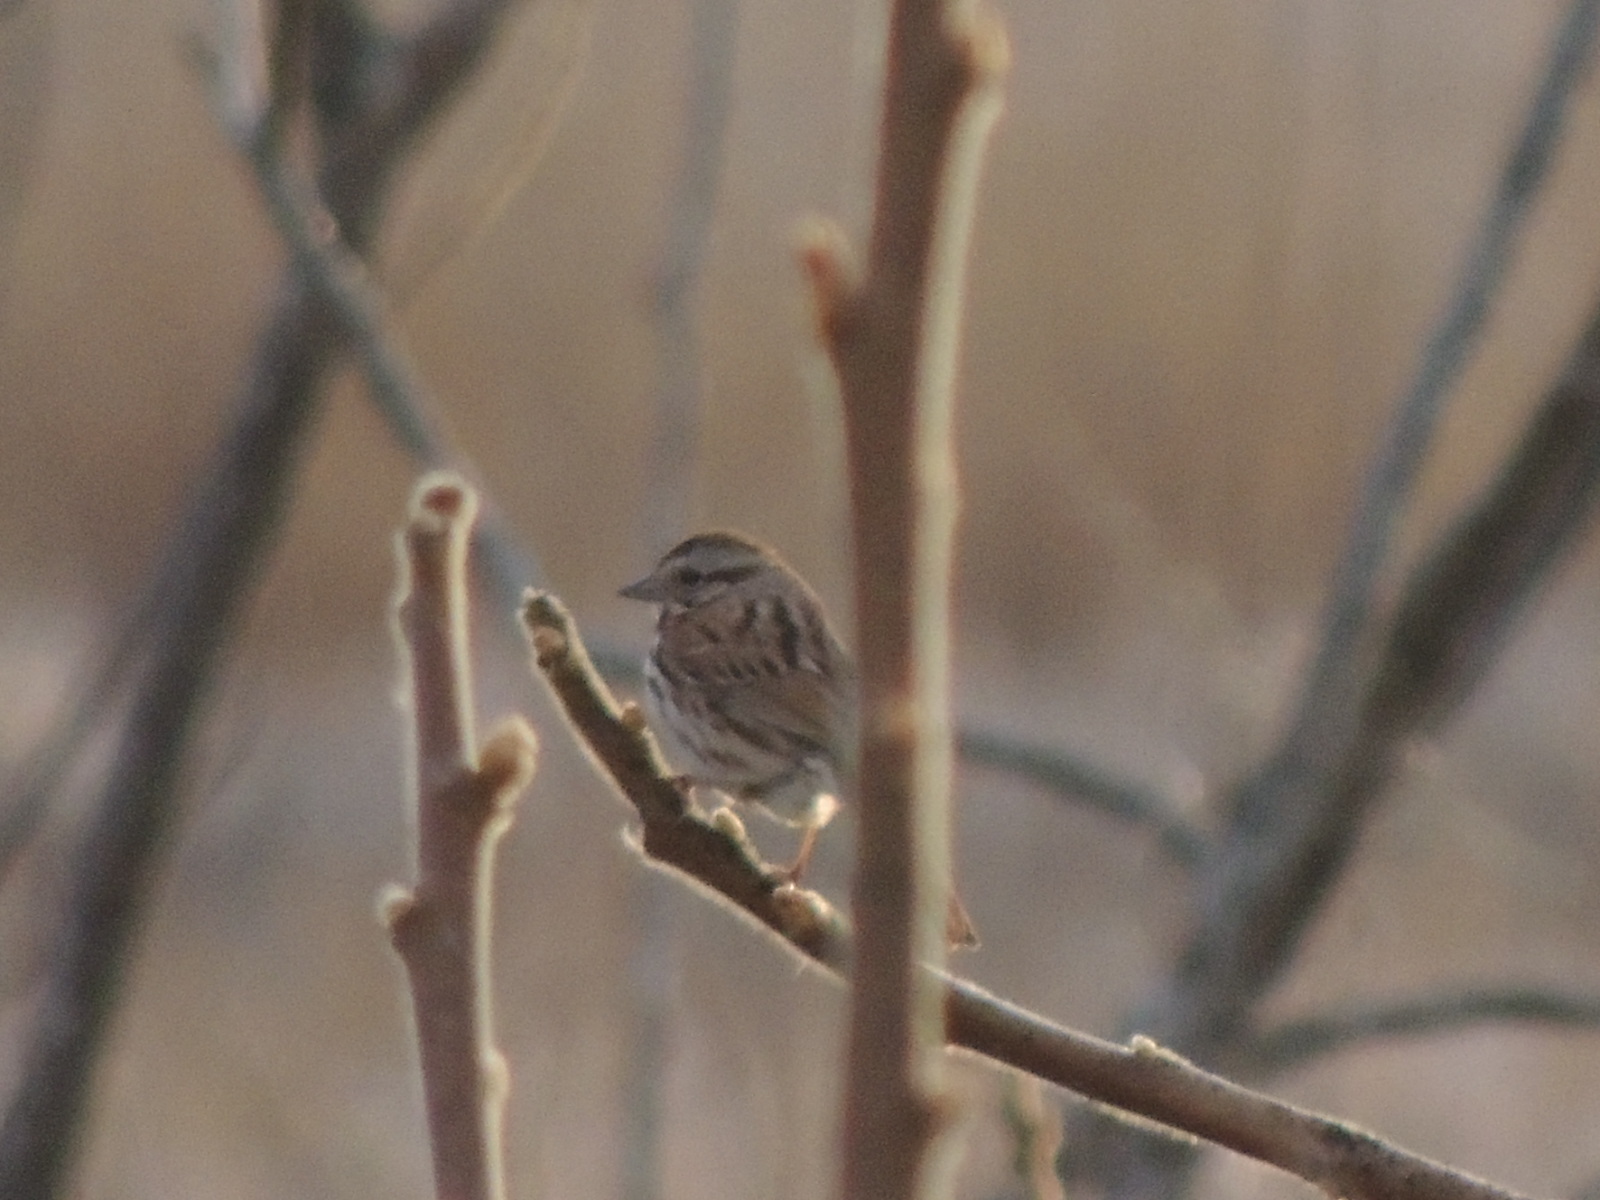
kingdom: Animalia
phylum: Chordata
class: Aves
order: Passeriformes
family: Passerellidae
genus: Melospiza
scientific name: Melospiza melodia
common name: Song sparrow
